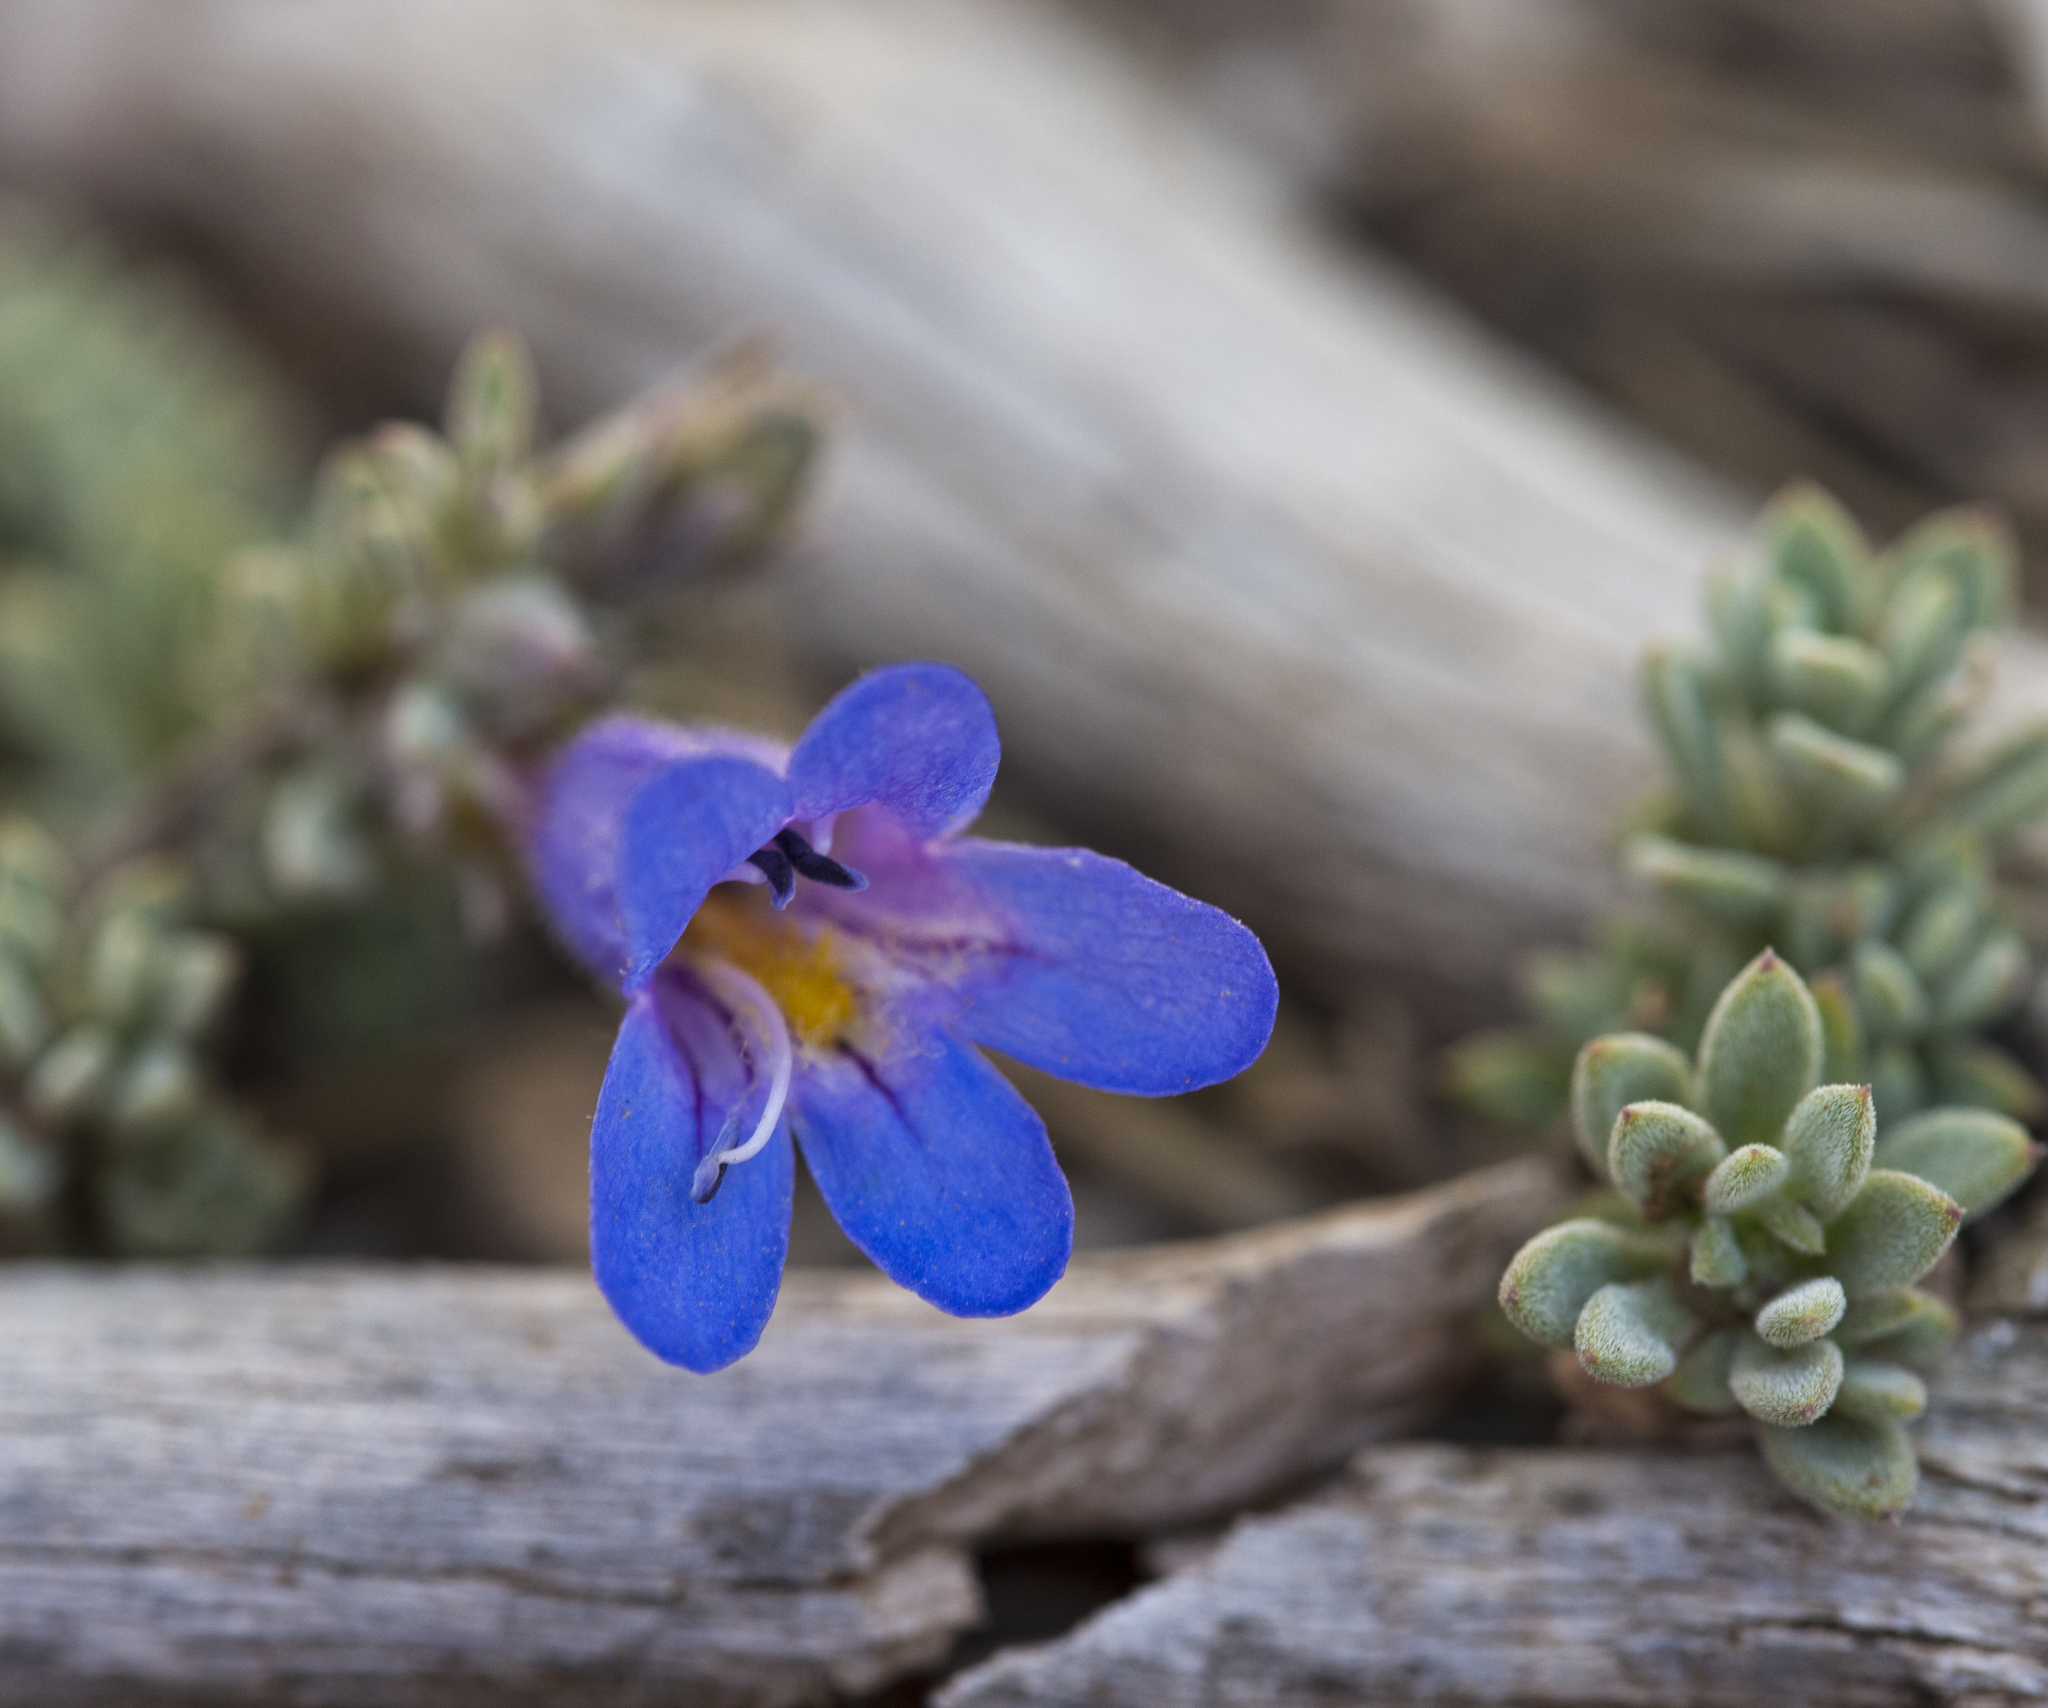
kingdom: Plantae
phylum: Tracheophyta
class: Magnoliopsida
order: Lamiales
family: Plantaginaceae
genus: Penstemon
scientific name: Penstemon thompsoniae
